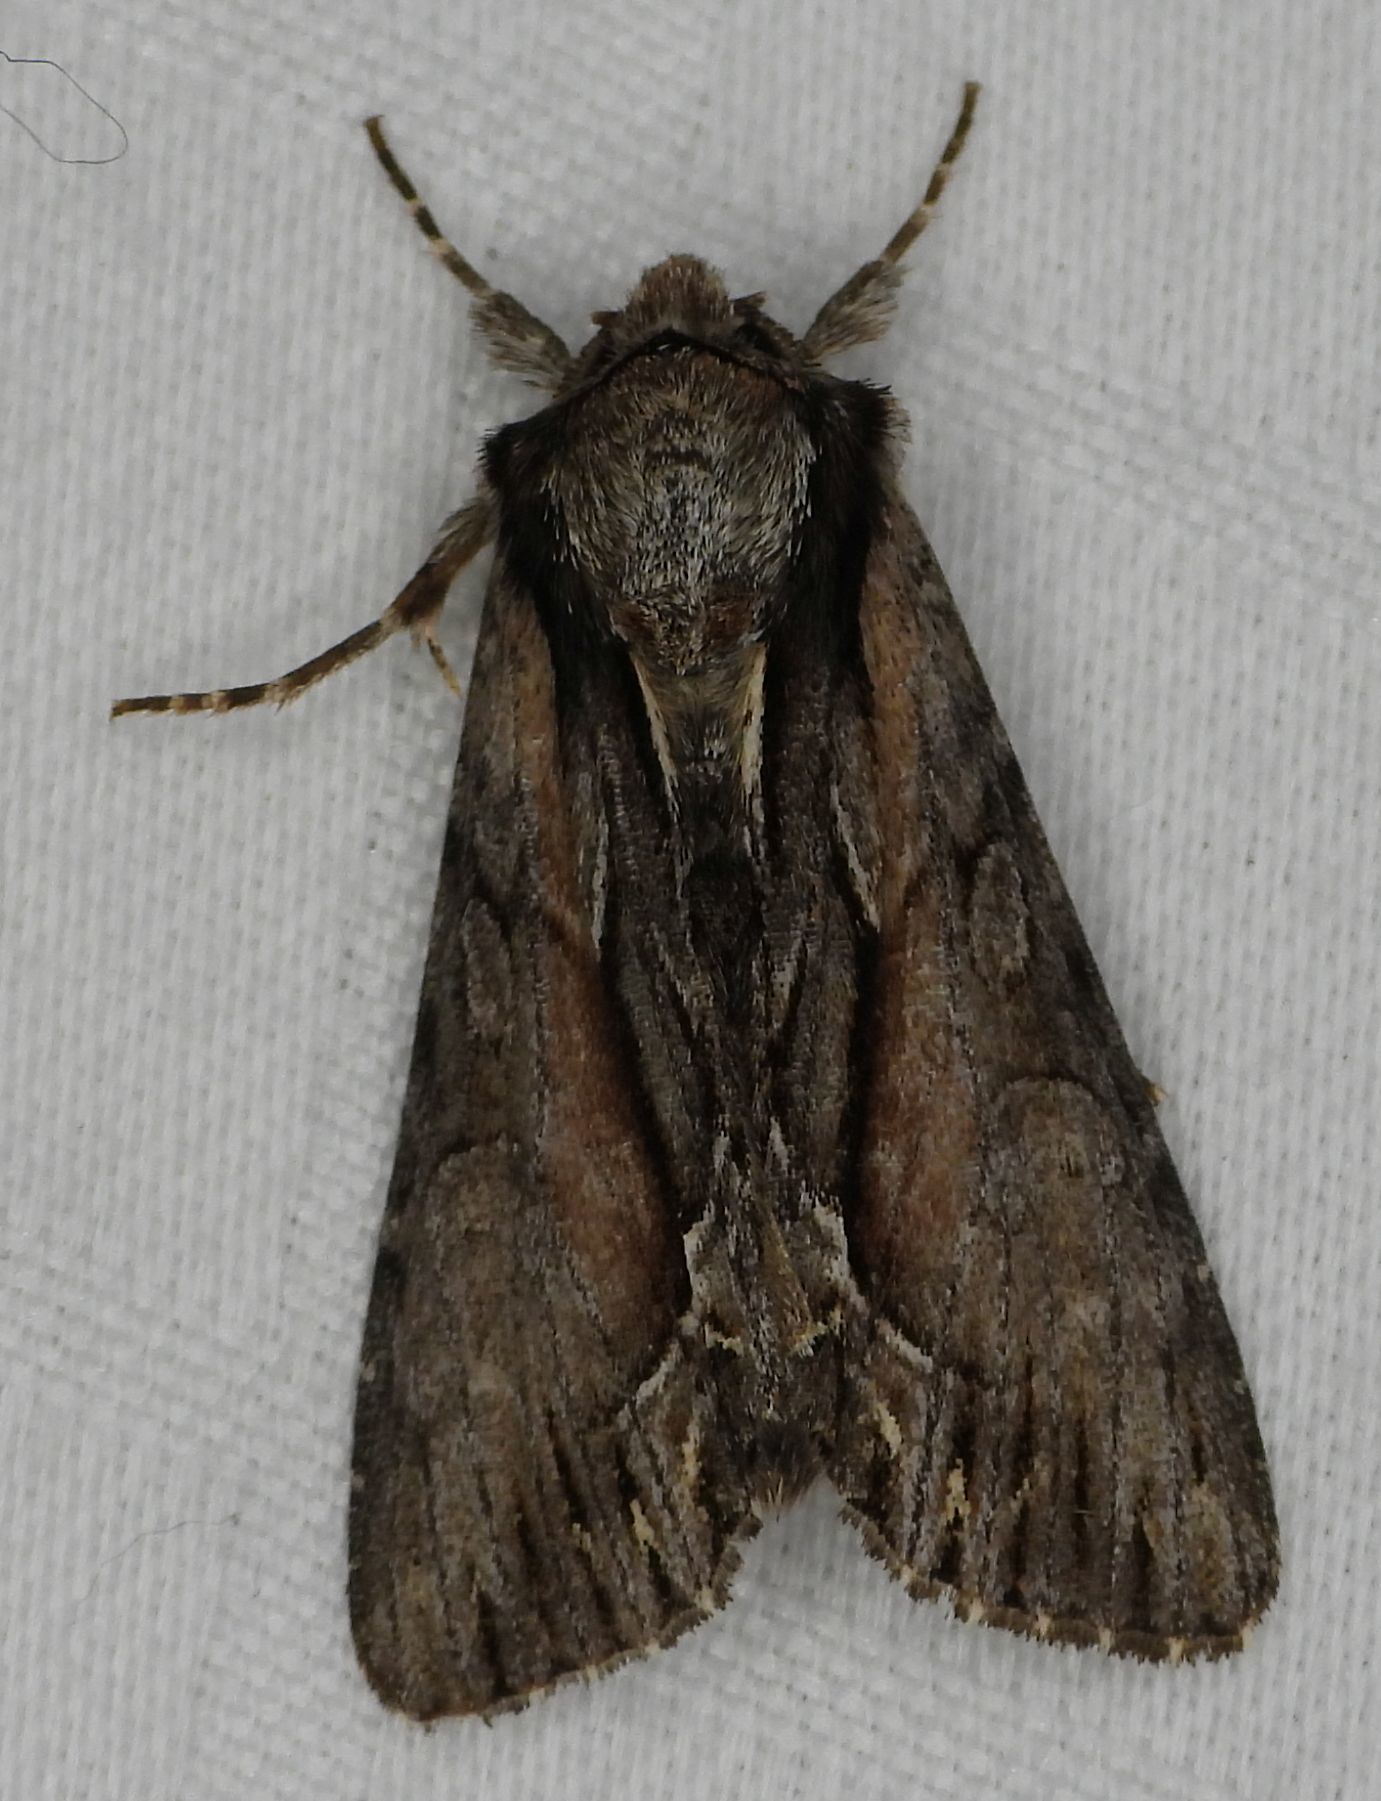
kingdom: Animalia
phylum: Arthropoda
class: Insecta
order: Lepidoptera
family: Noctuidae
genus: Hyppa
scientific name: Hyppa xylinoides
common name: Common hyppa moth
